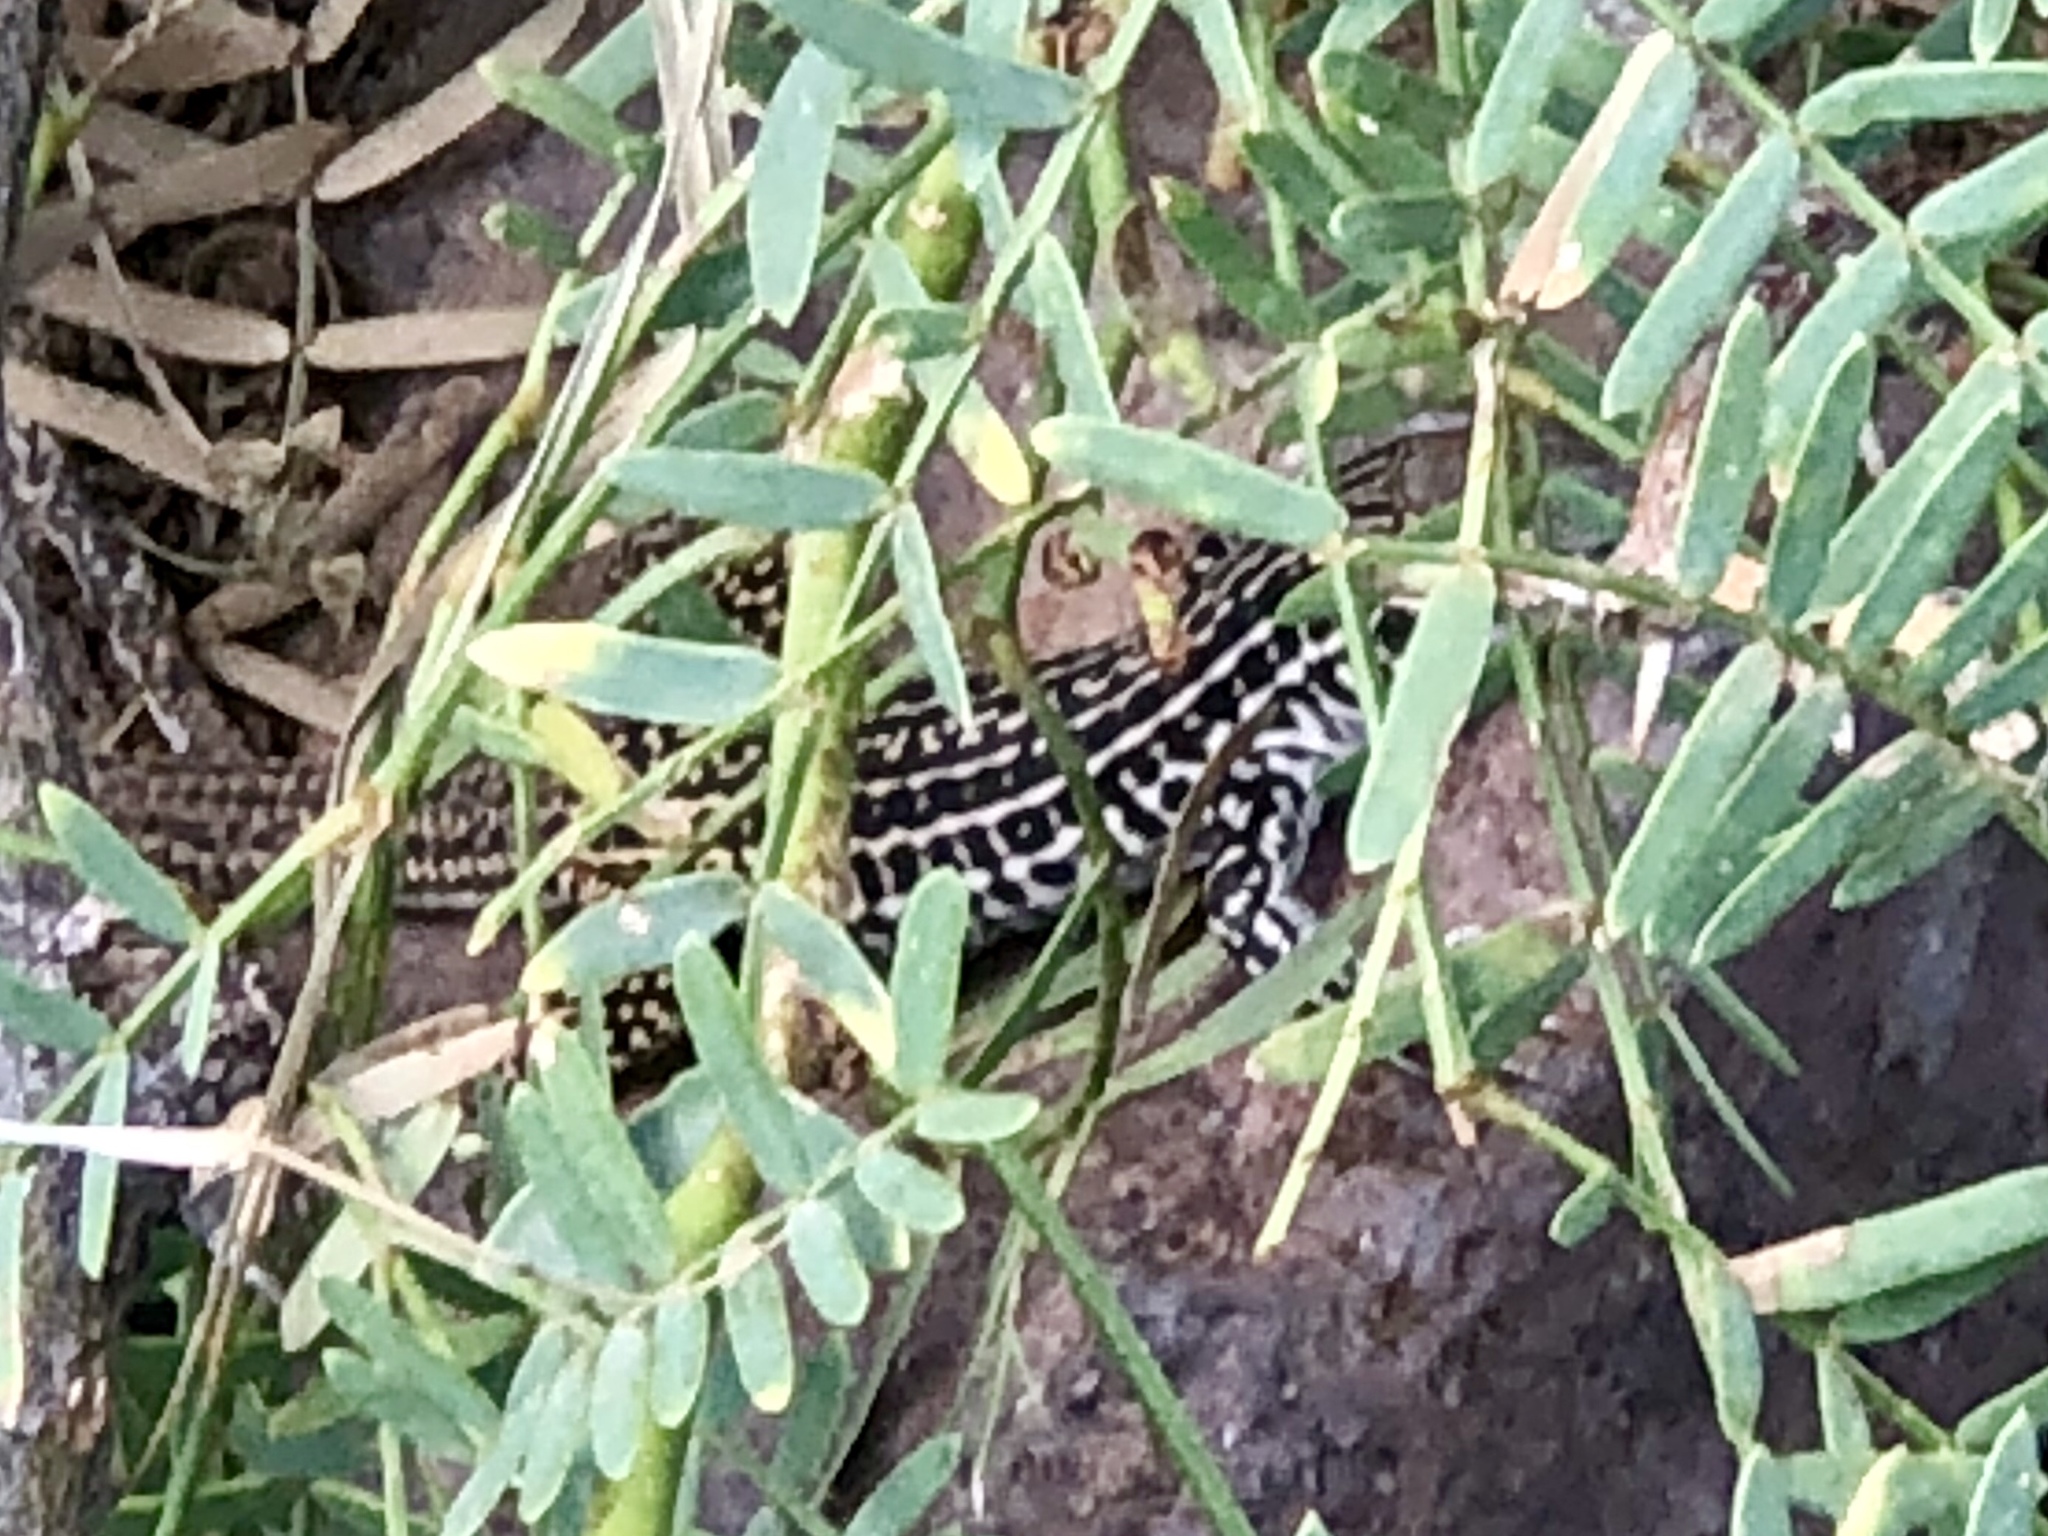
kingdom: Animalia
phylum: Chordata
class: Squamata
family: Teiidae
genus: Aspidoscelis
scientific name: Aspidoscelis tesselatus
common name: Common checkered whiptail [tesselata]
